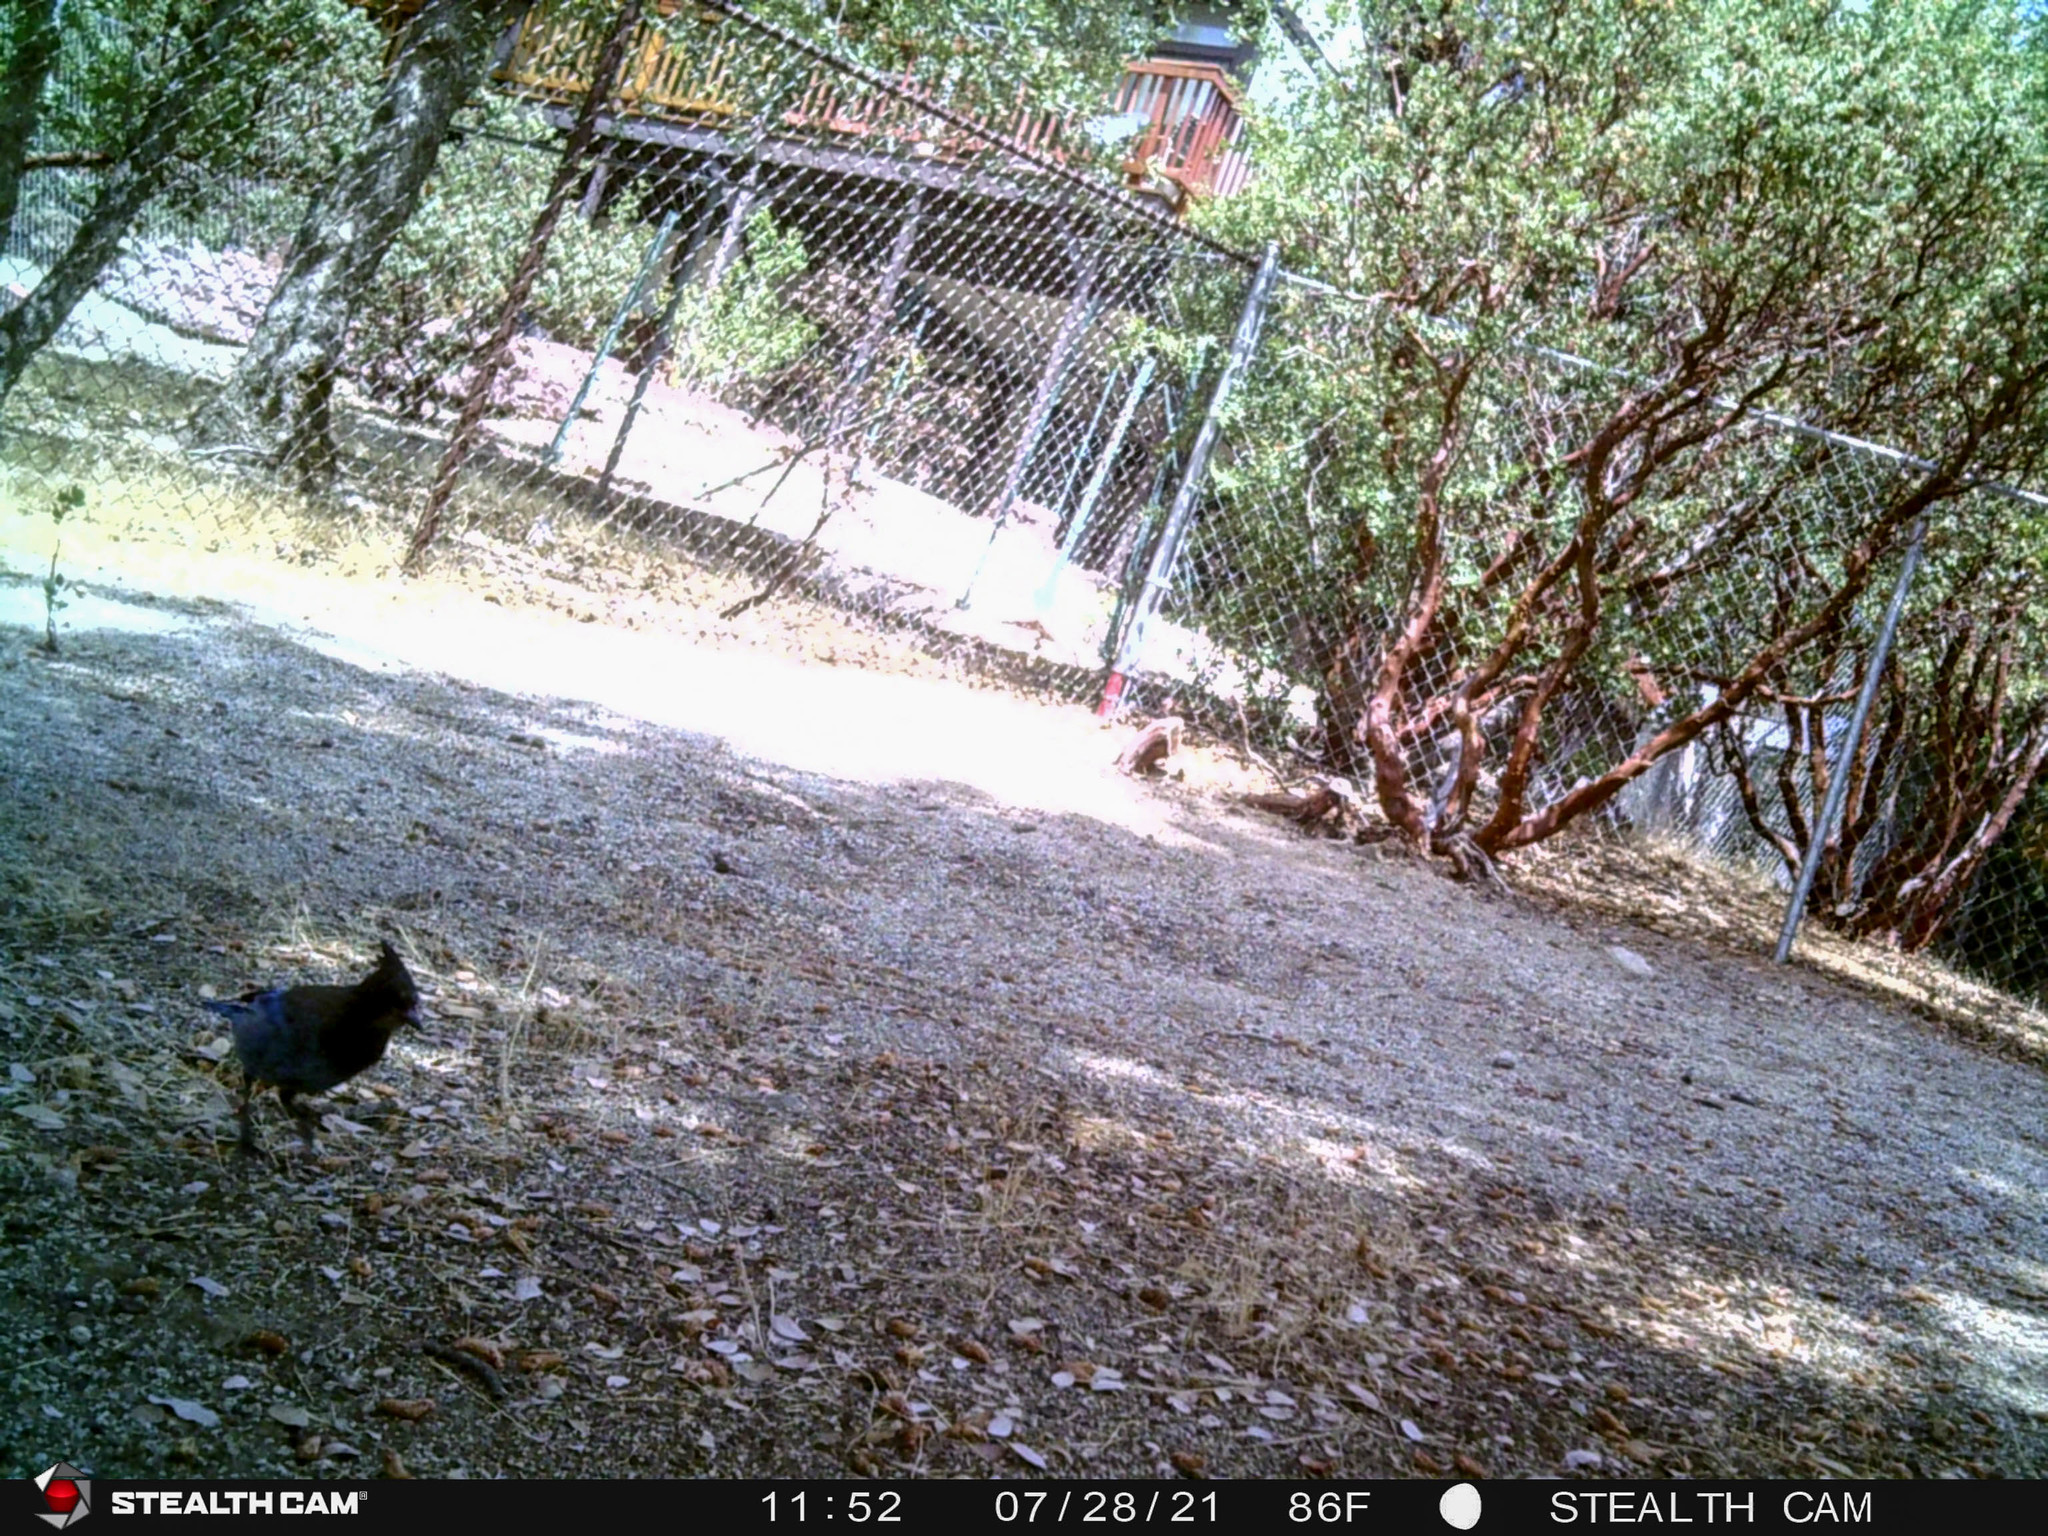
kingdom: Animalia
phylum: Chordata
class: Aves
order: Passeriformes
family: Corvidae
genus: Cyanocitta
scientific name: Cyanocitta stelleri
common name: Steller's jay
